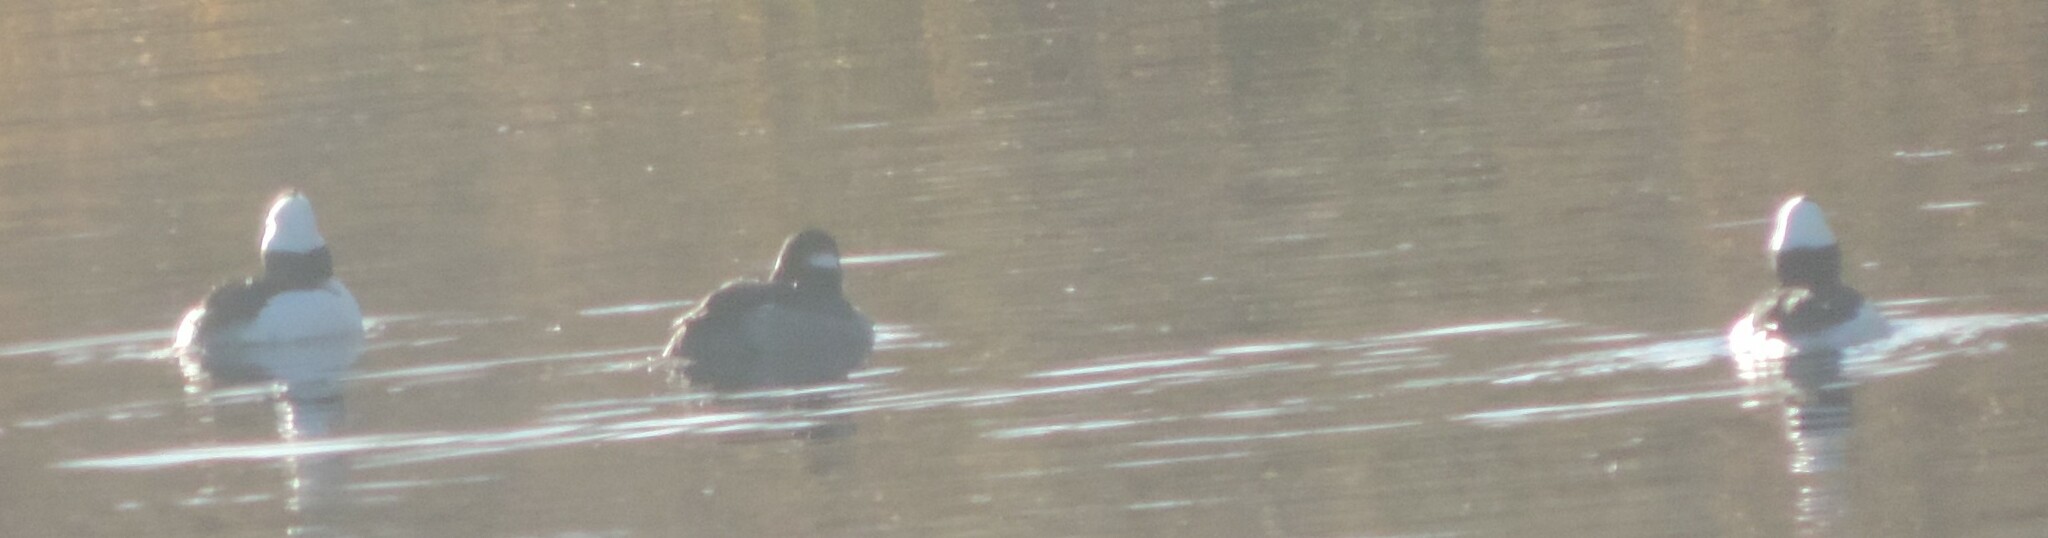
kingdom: Animalia
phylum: Chordata
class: Aves
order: Anseriformes
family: Anatidae
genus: Bucephala
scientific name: Bucephala albeola
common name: Bufflehead
